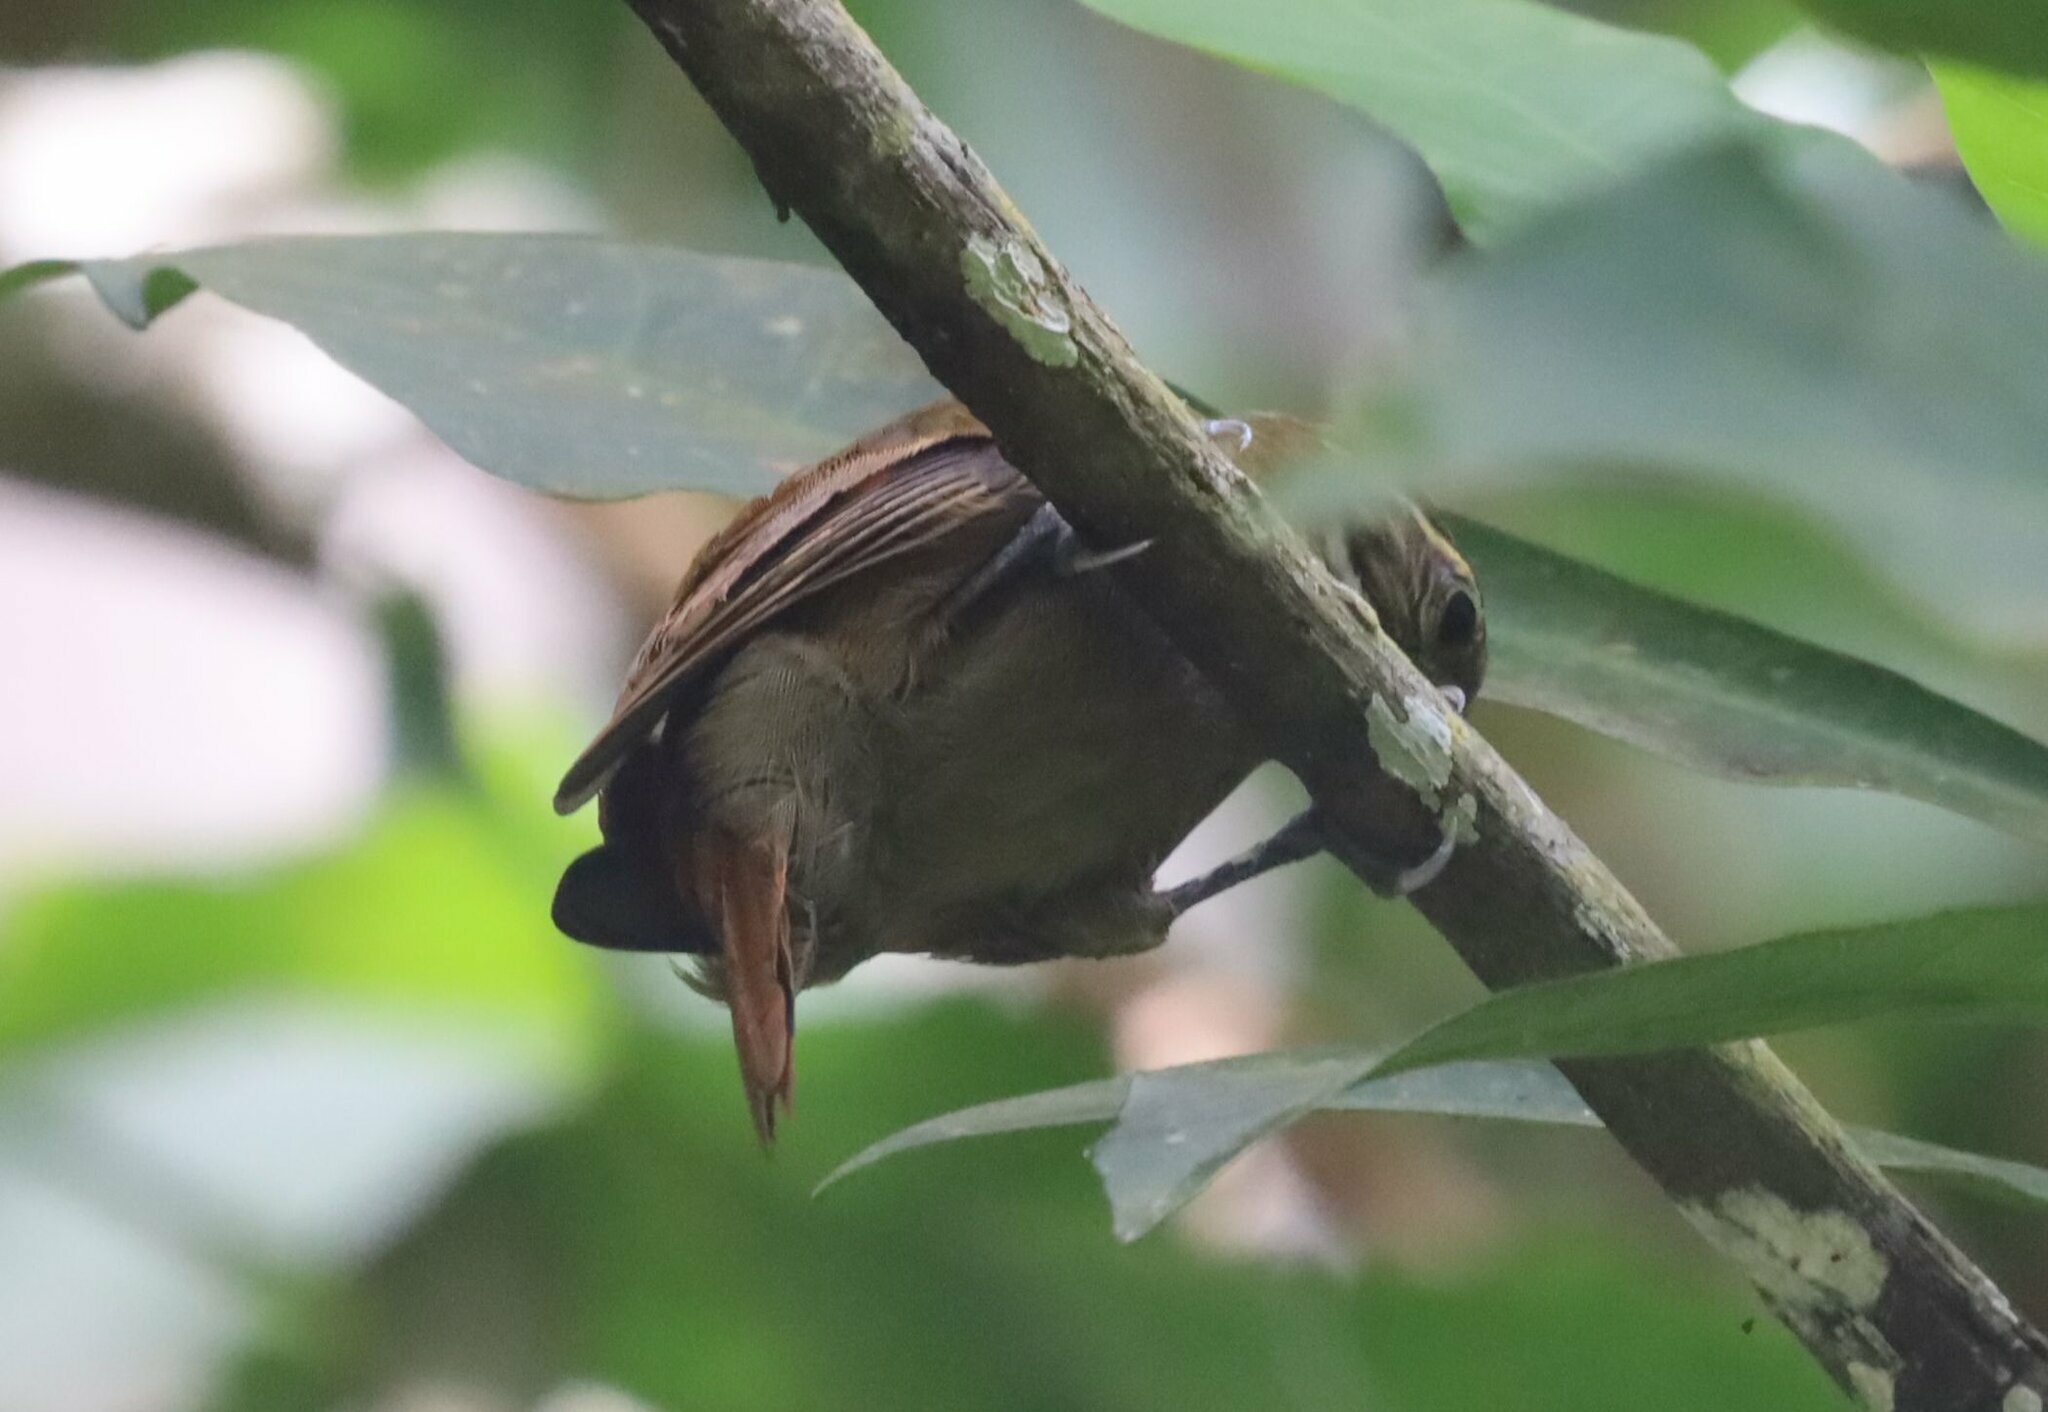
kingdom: Animalia
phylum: Chordata
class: Aves
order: Passeriformes
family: Furnariidae
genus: Xenops
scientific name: Xenops minutus
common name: Plain xenops
